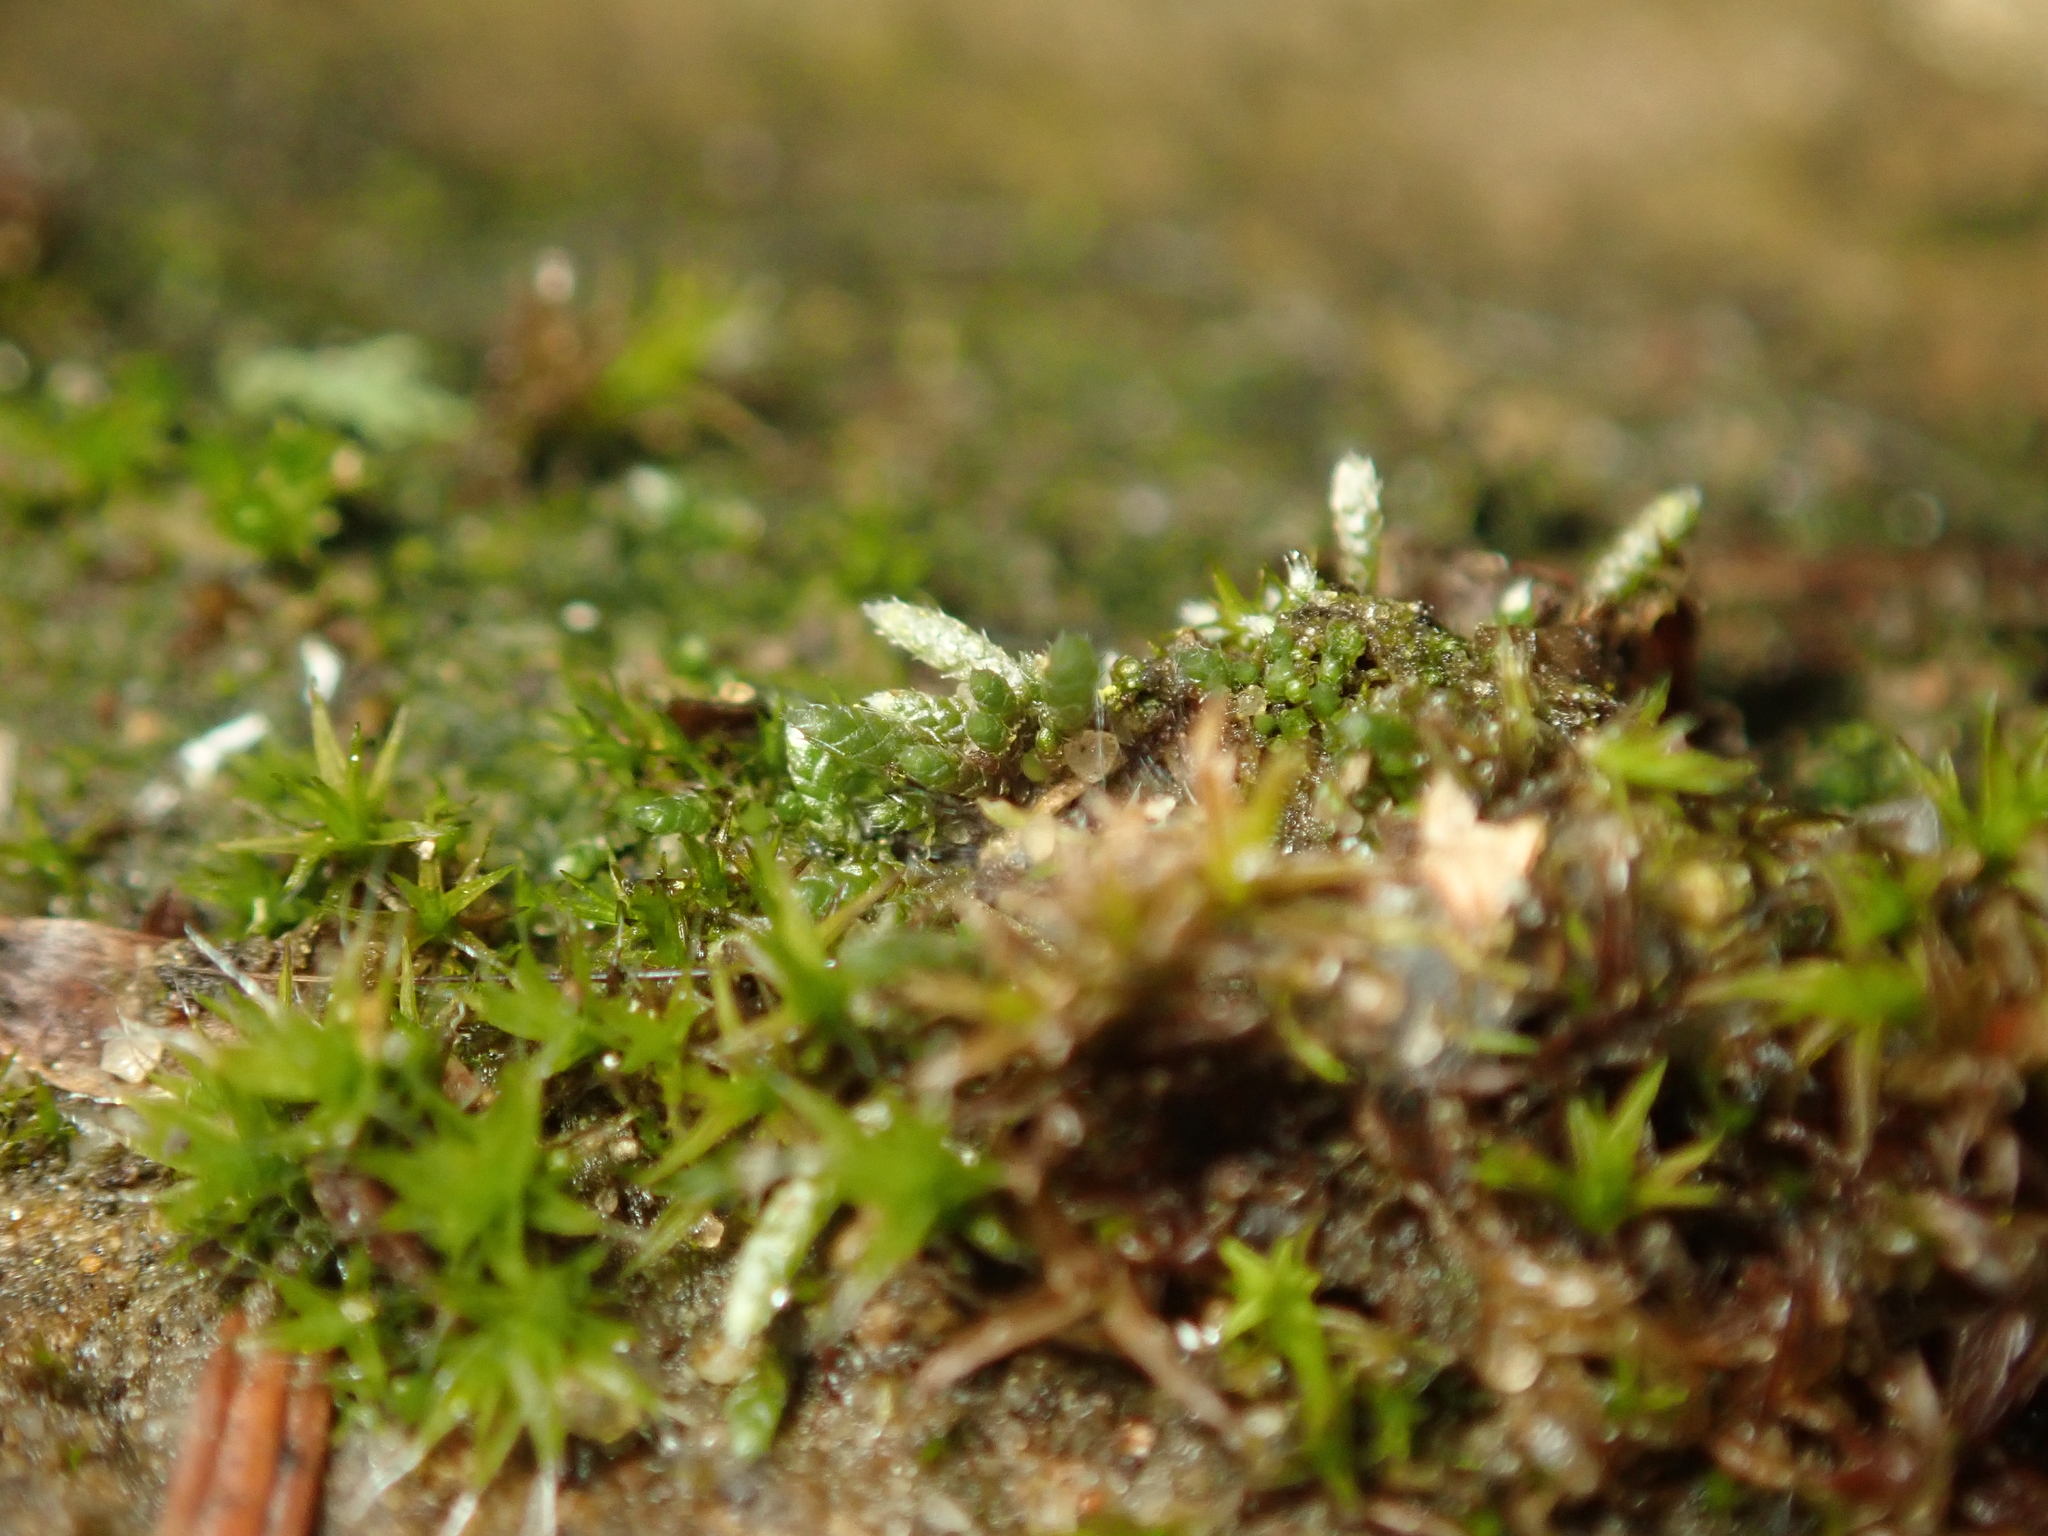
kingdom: Plantae
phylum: Bryophyta
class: Bryopsida
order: Bryales
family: Bryaceae
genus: Bryum
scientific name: Bryum argenteum
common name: Silver-moss
